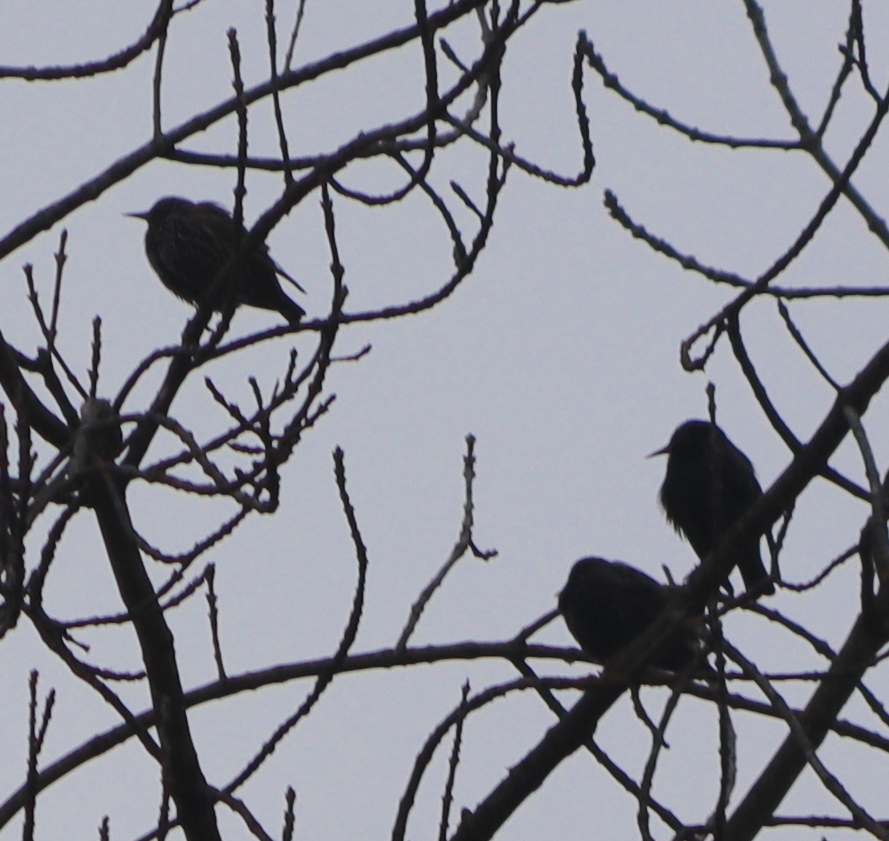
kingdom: Animalia
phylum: Chordata
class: Aves
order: Passeriformes
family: Sturnidae
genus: Sturnus
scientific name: Sturnus vulgaris
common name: Common starling
